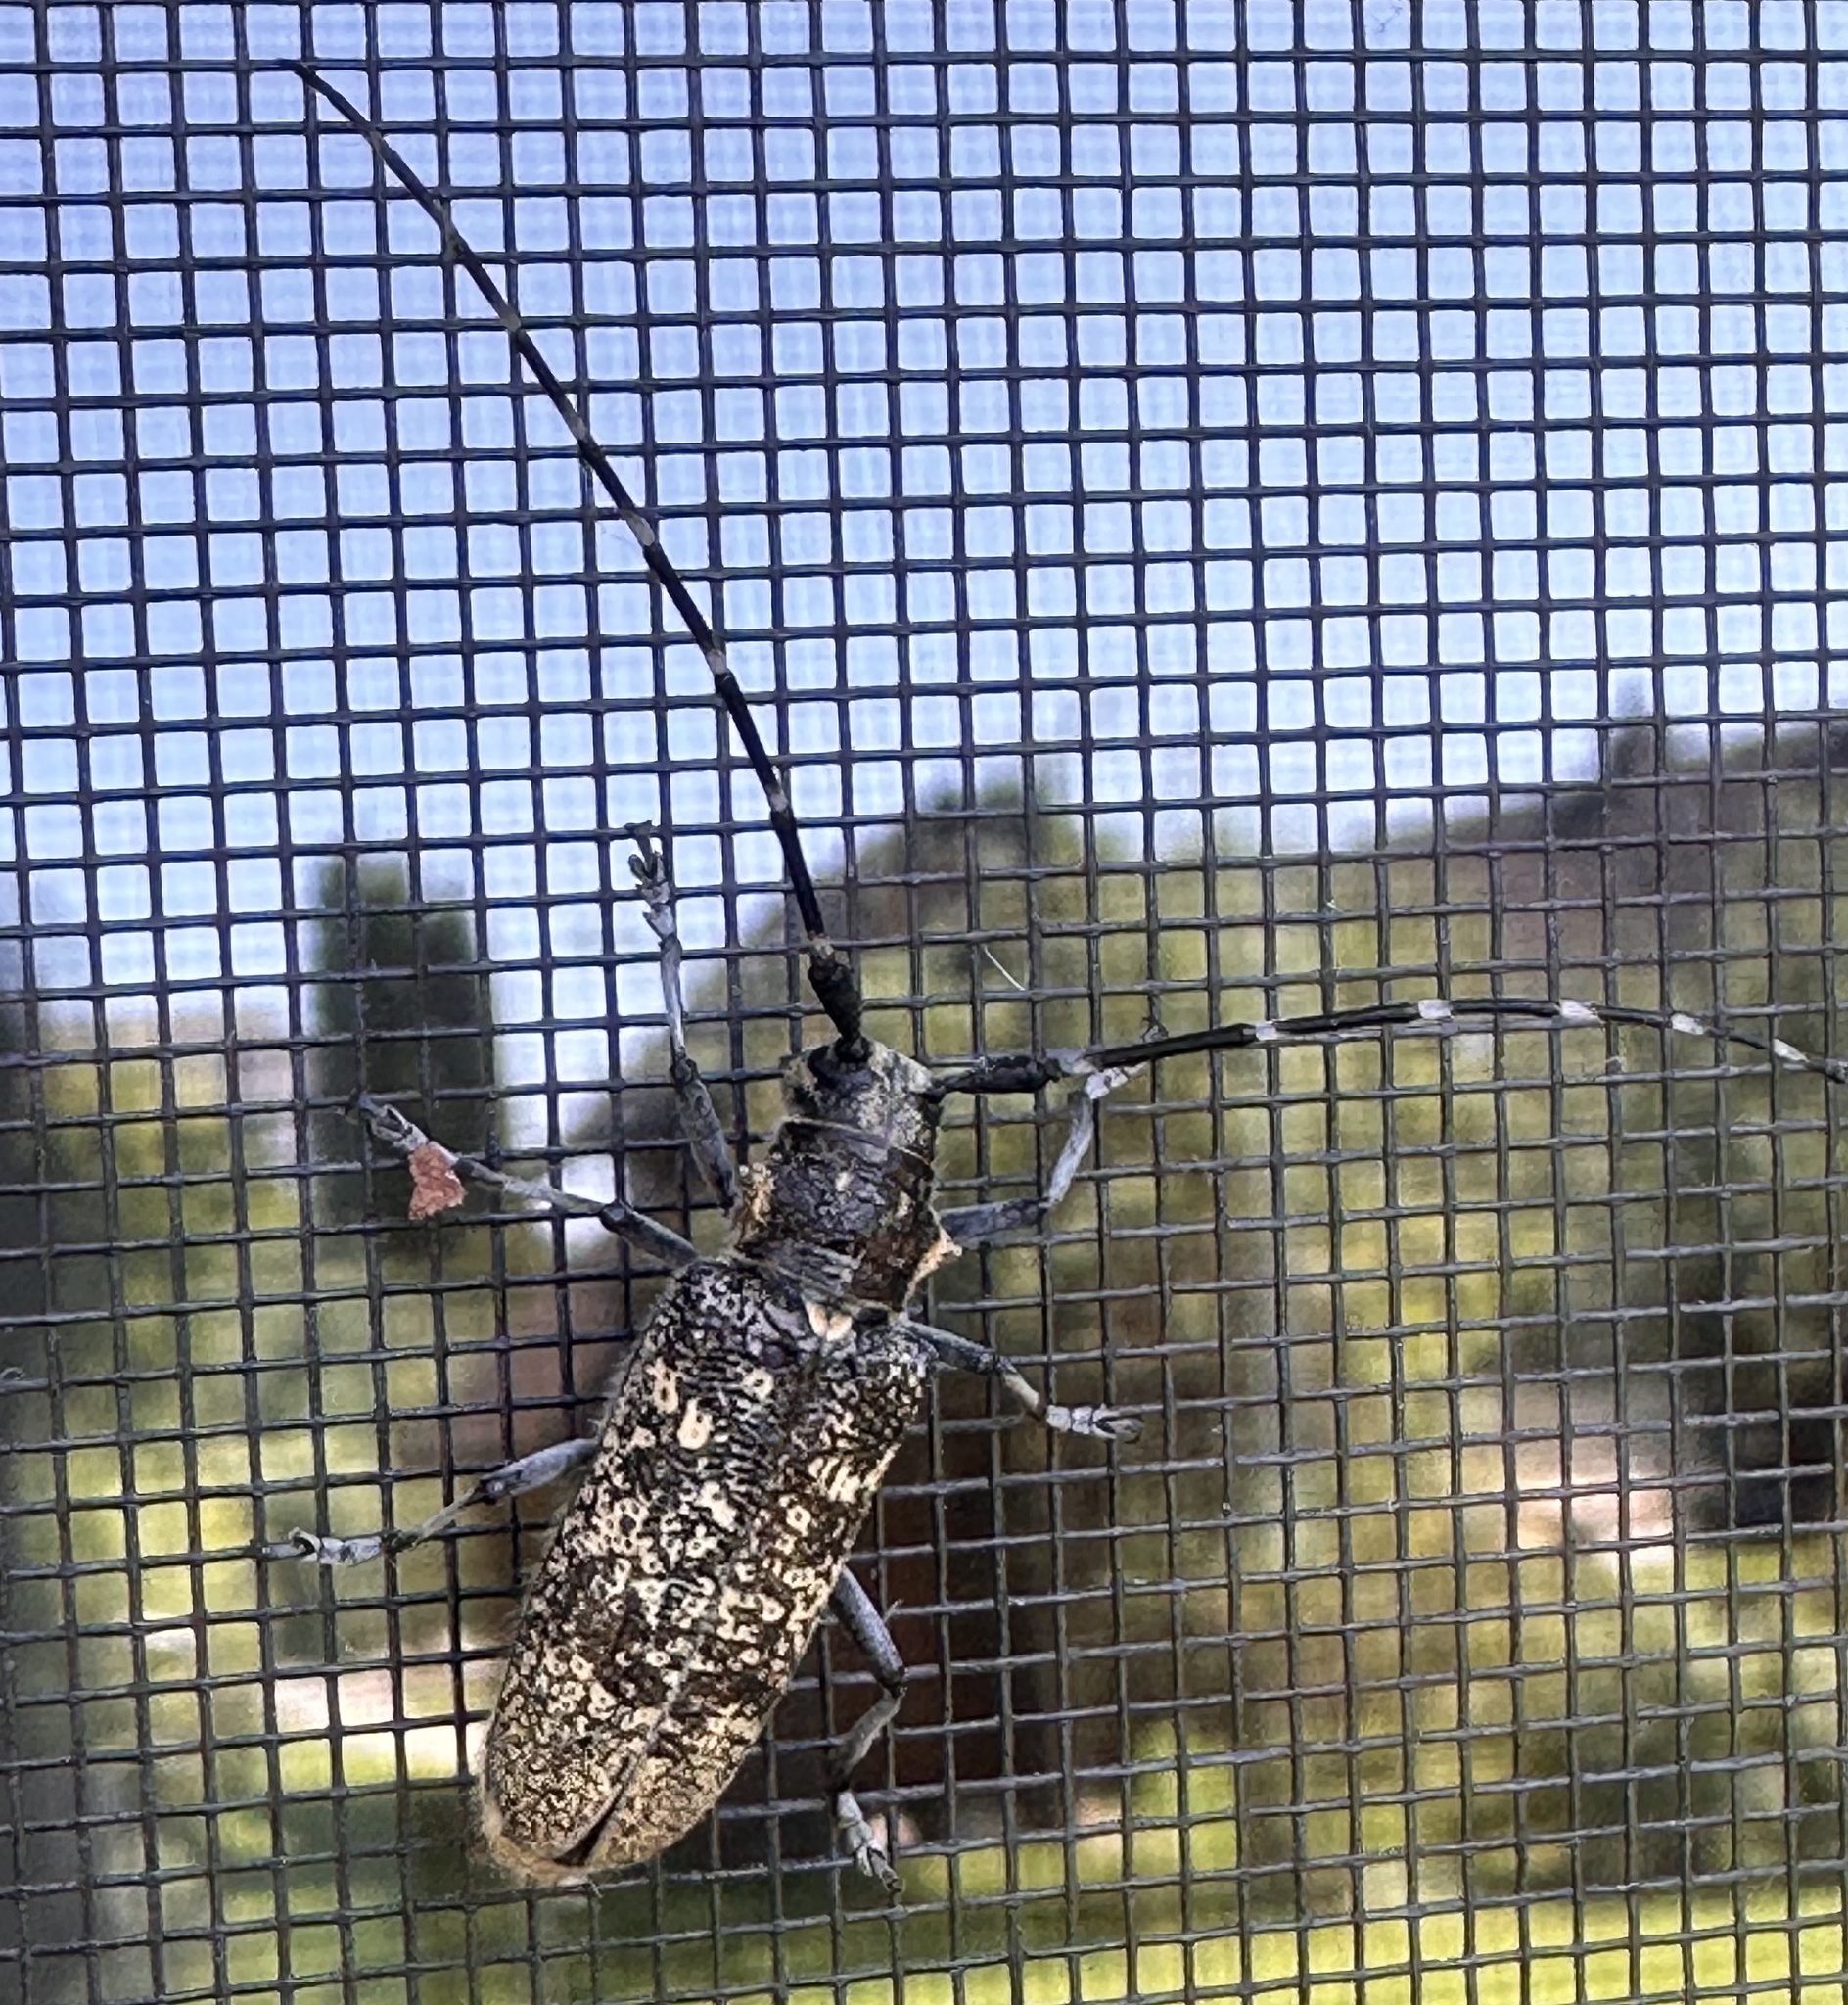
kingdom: Animalia
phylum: Arthropoda
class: Insecta
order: Coleoptera
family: Cerambycidae
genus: Monochamus
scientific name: Monochamus sutor
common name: Pine sawyer
